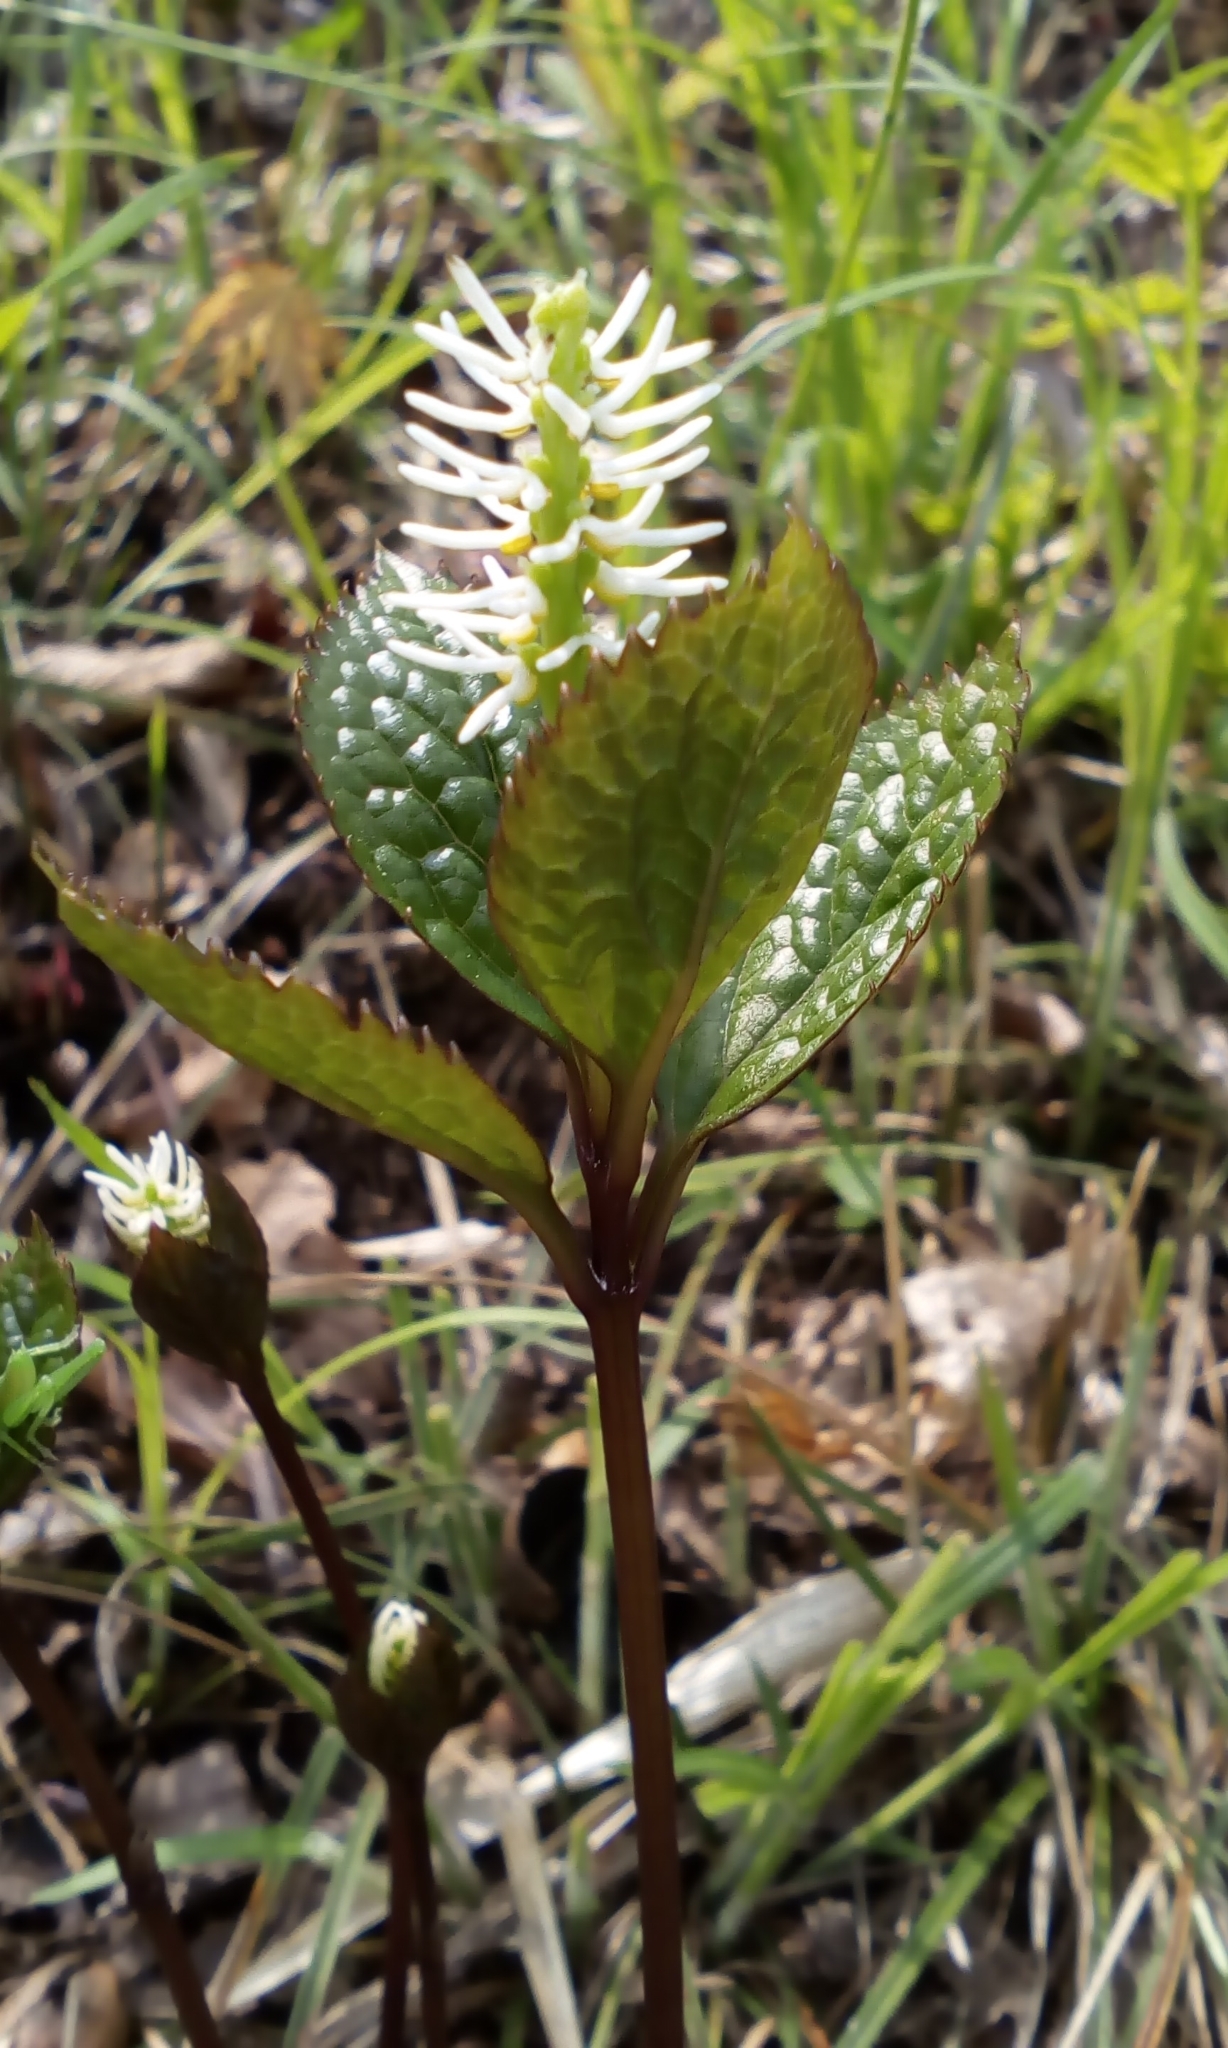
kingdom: Plantae
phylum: Tracheophyta
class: Magnoliopsida
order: Chloranthales
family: Chloranthaceae
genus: Chloranthus
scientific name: Chloranthus quadrifolius
